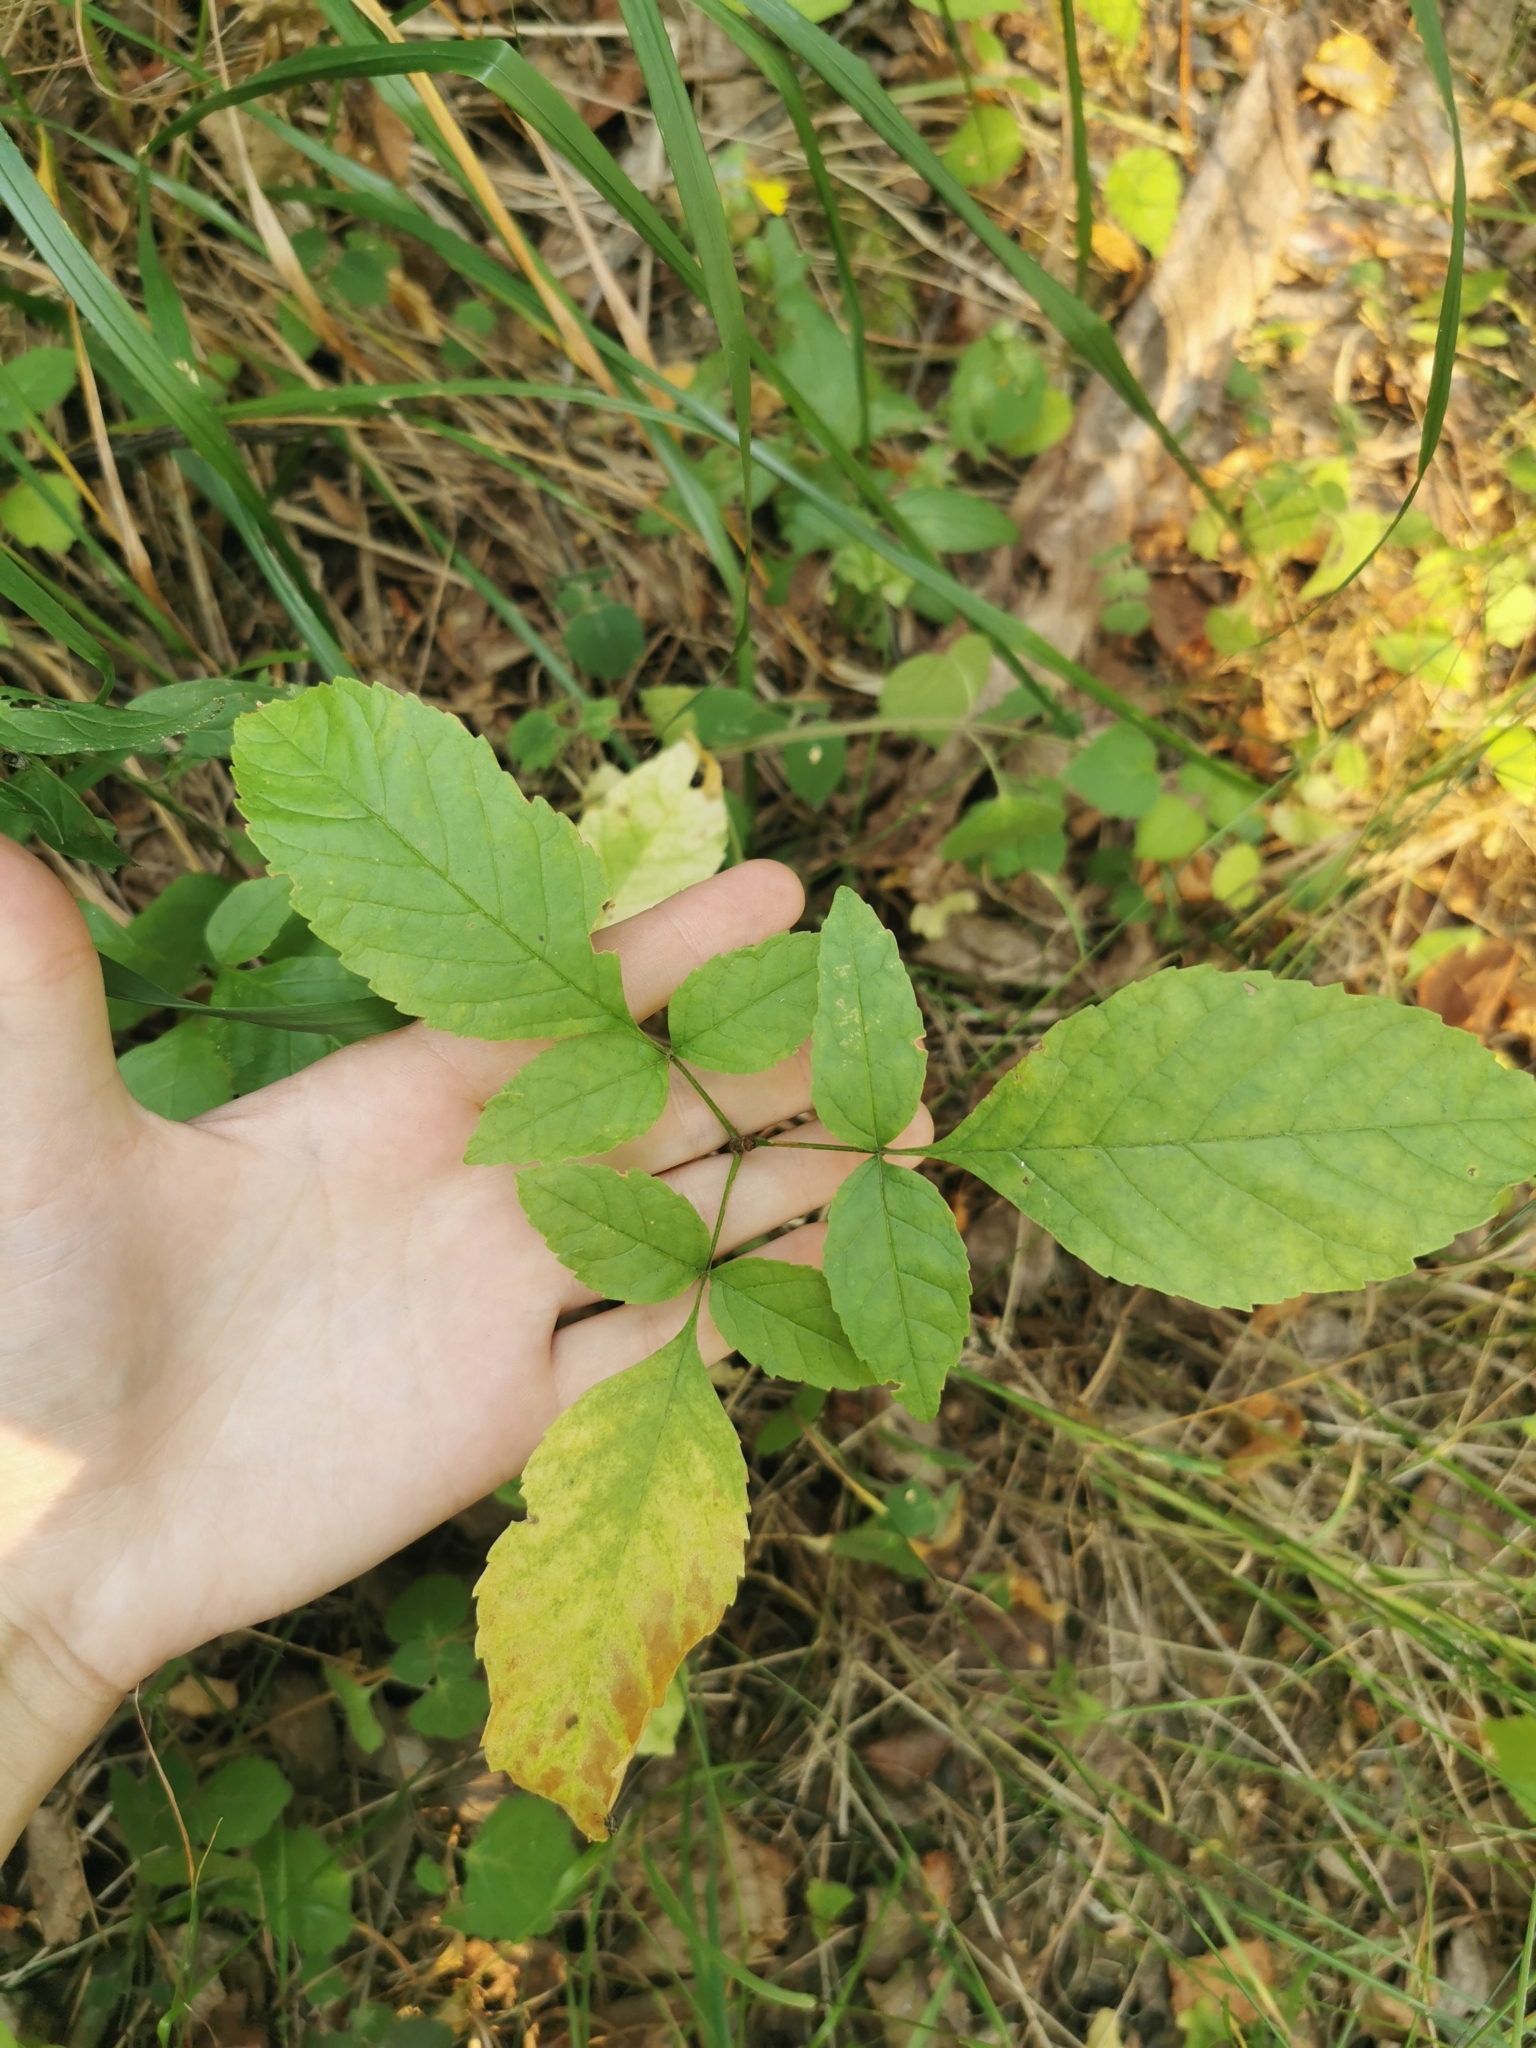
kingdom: Plantae
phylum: Tracheophyta
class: Magnoliopsida
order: Lamiales
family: Oleaceae
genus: Fraxinus
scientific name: Fraxinus pennsylvanica
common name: Green ash
